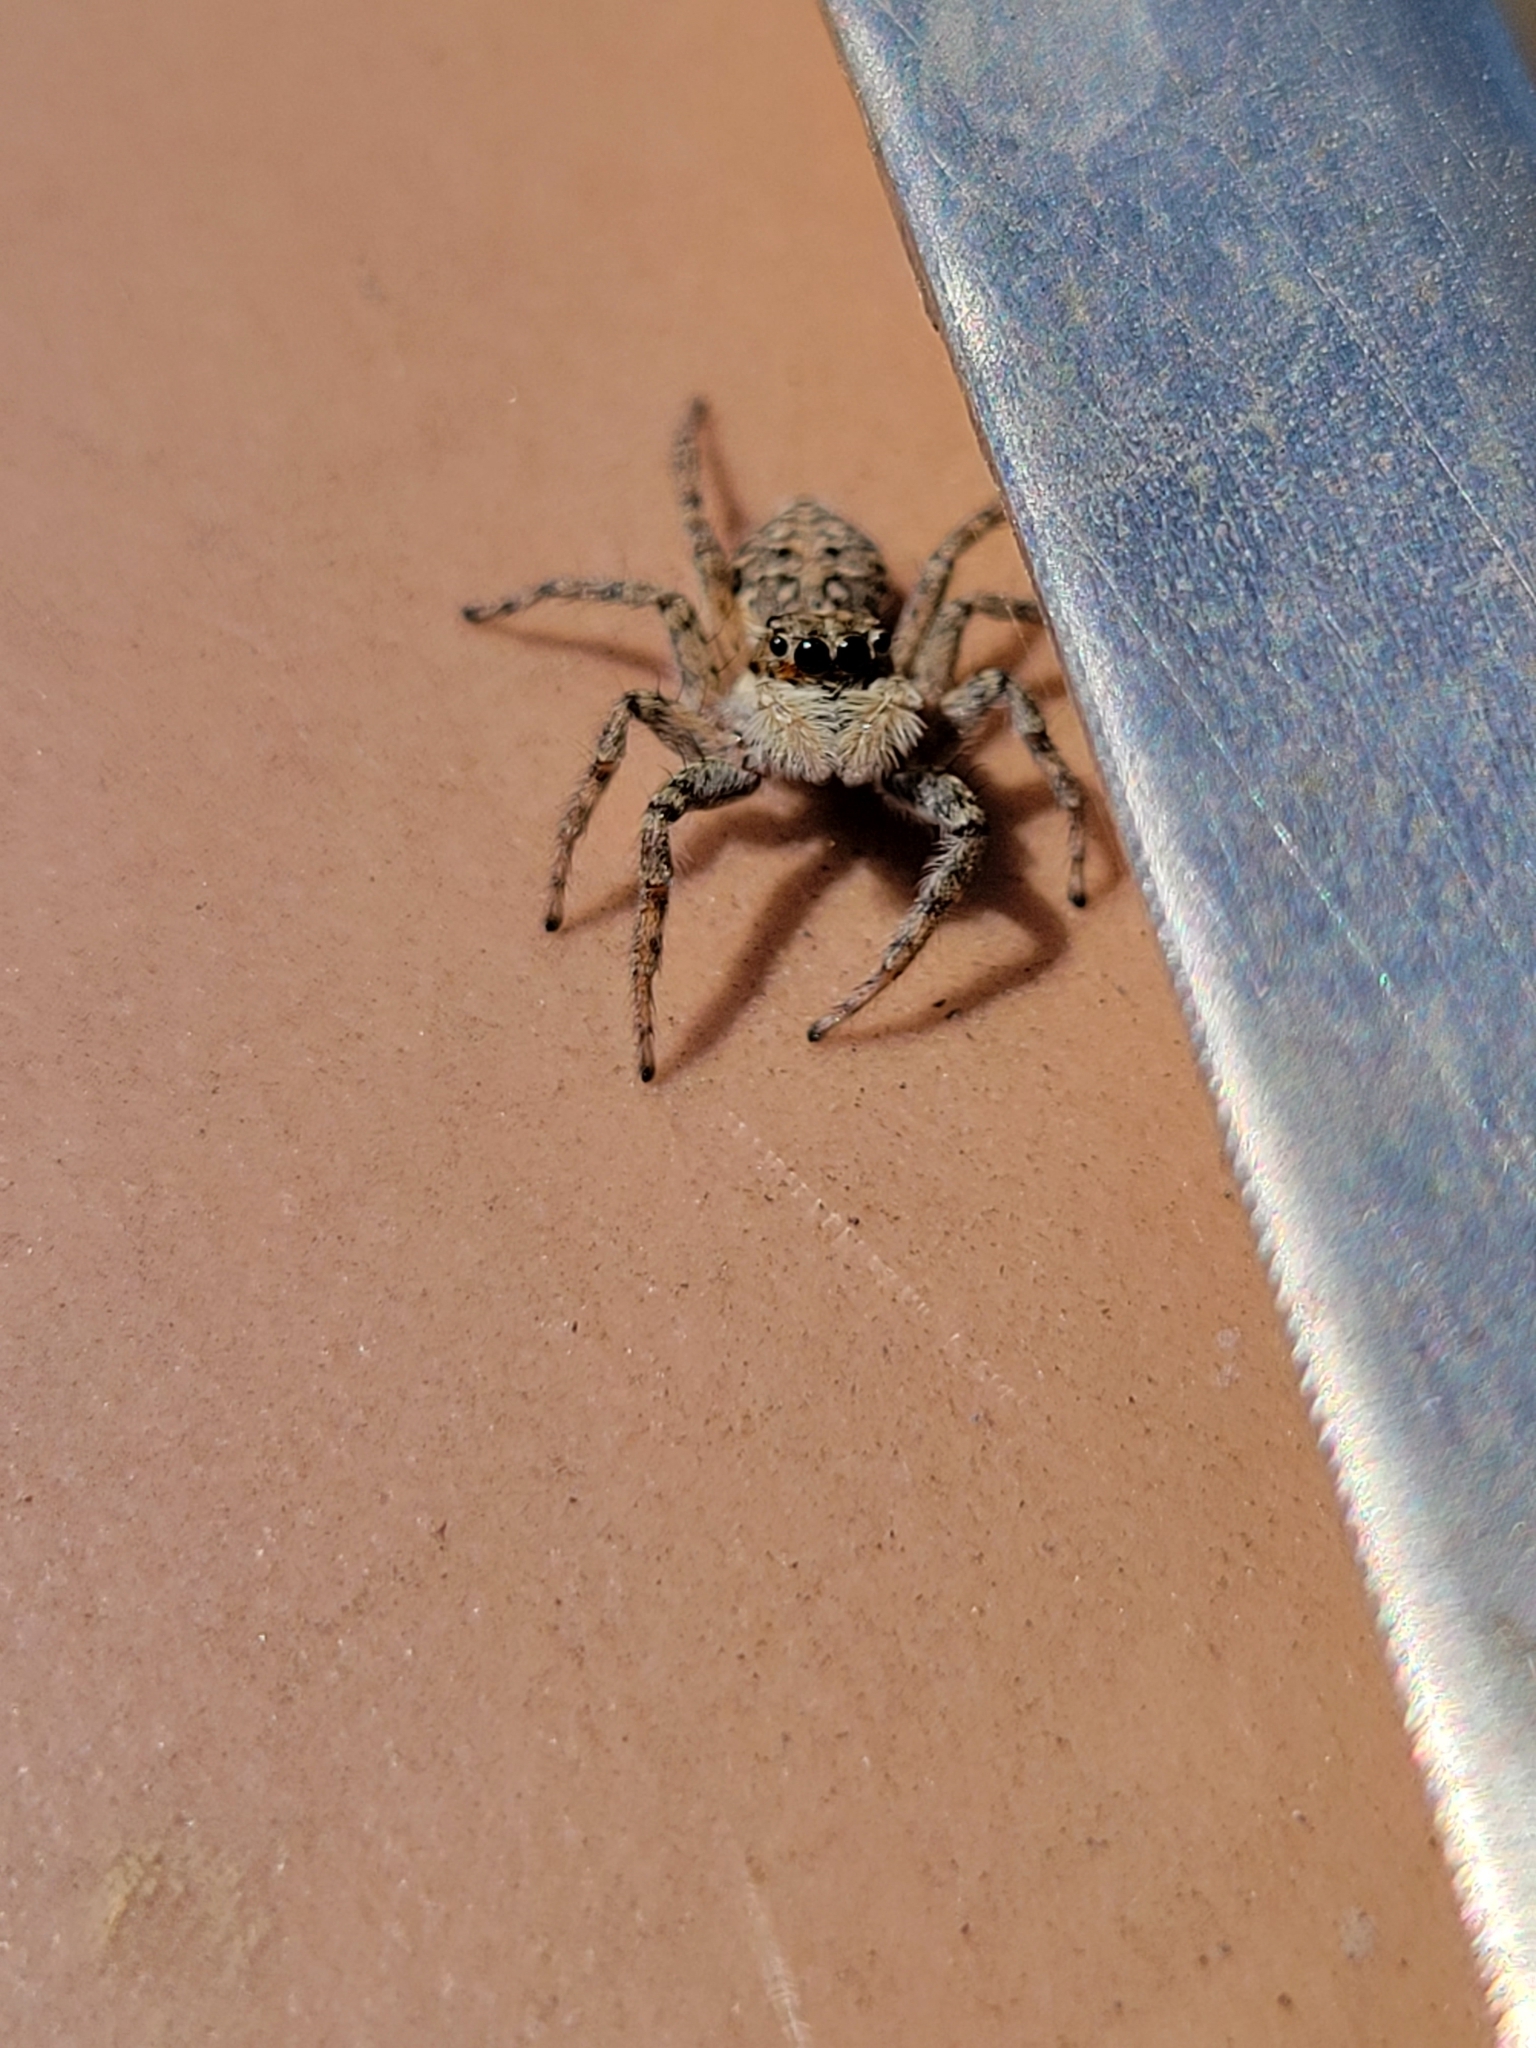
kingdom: Animalia
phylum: Arthropoda
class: Arachnida
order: Araneae
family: Salticidae
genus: Menemerus
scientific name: Menemerus semilimbatus
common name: Jumping spider
